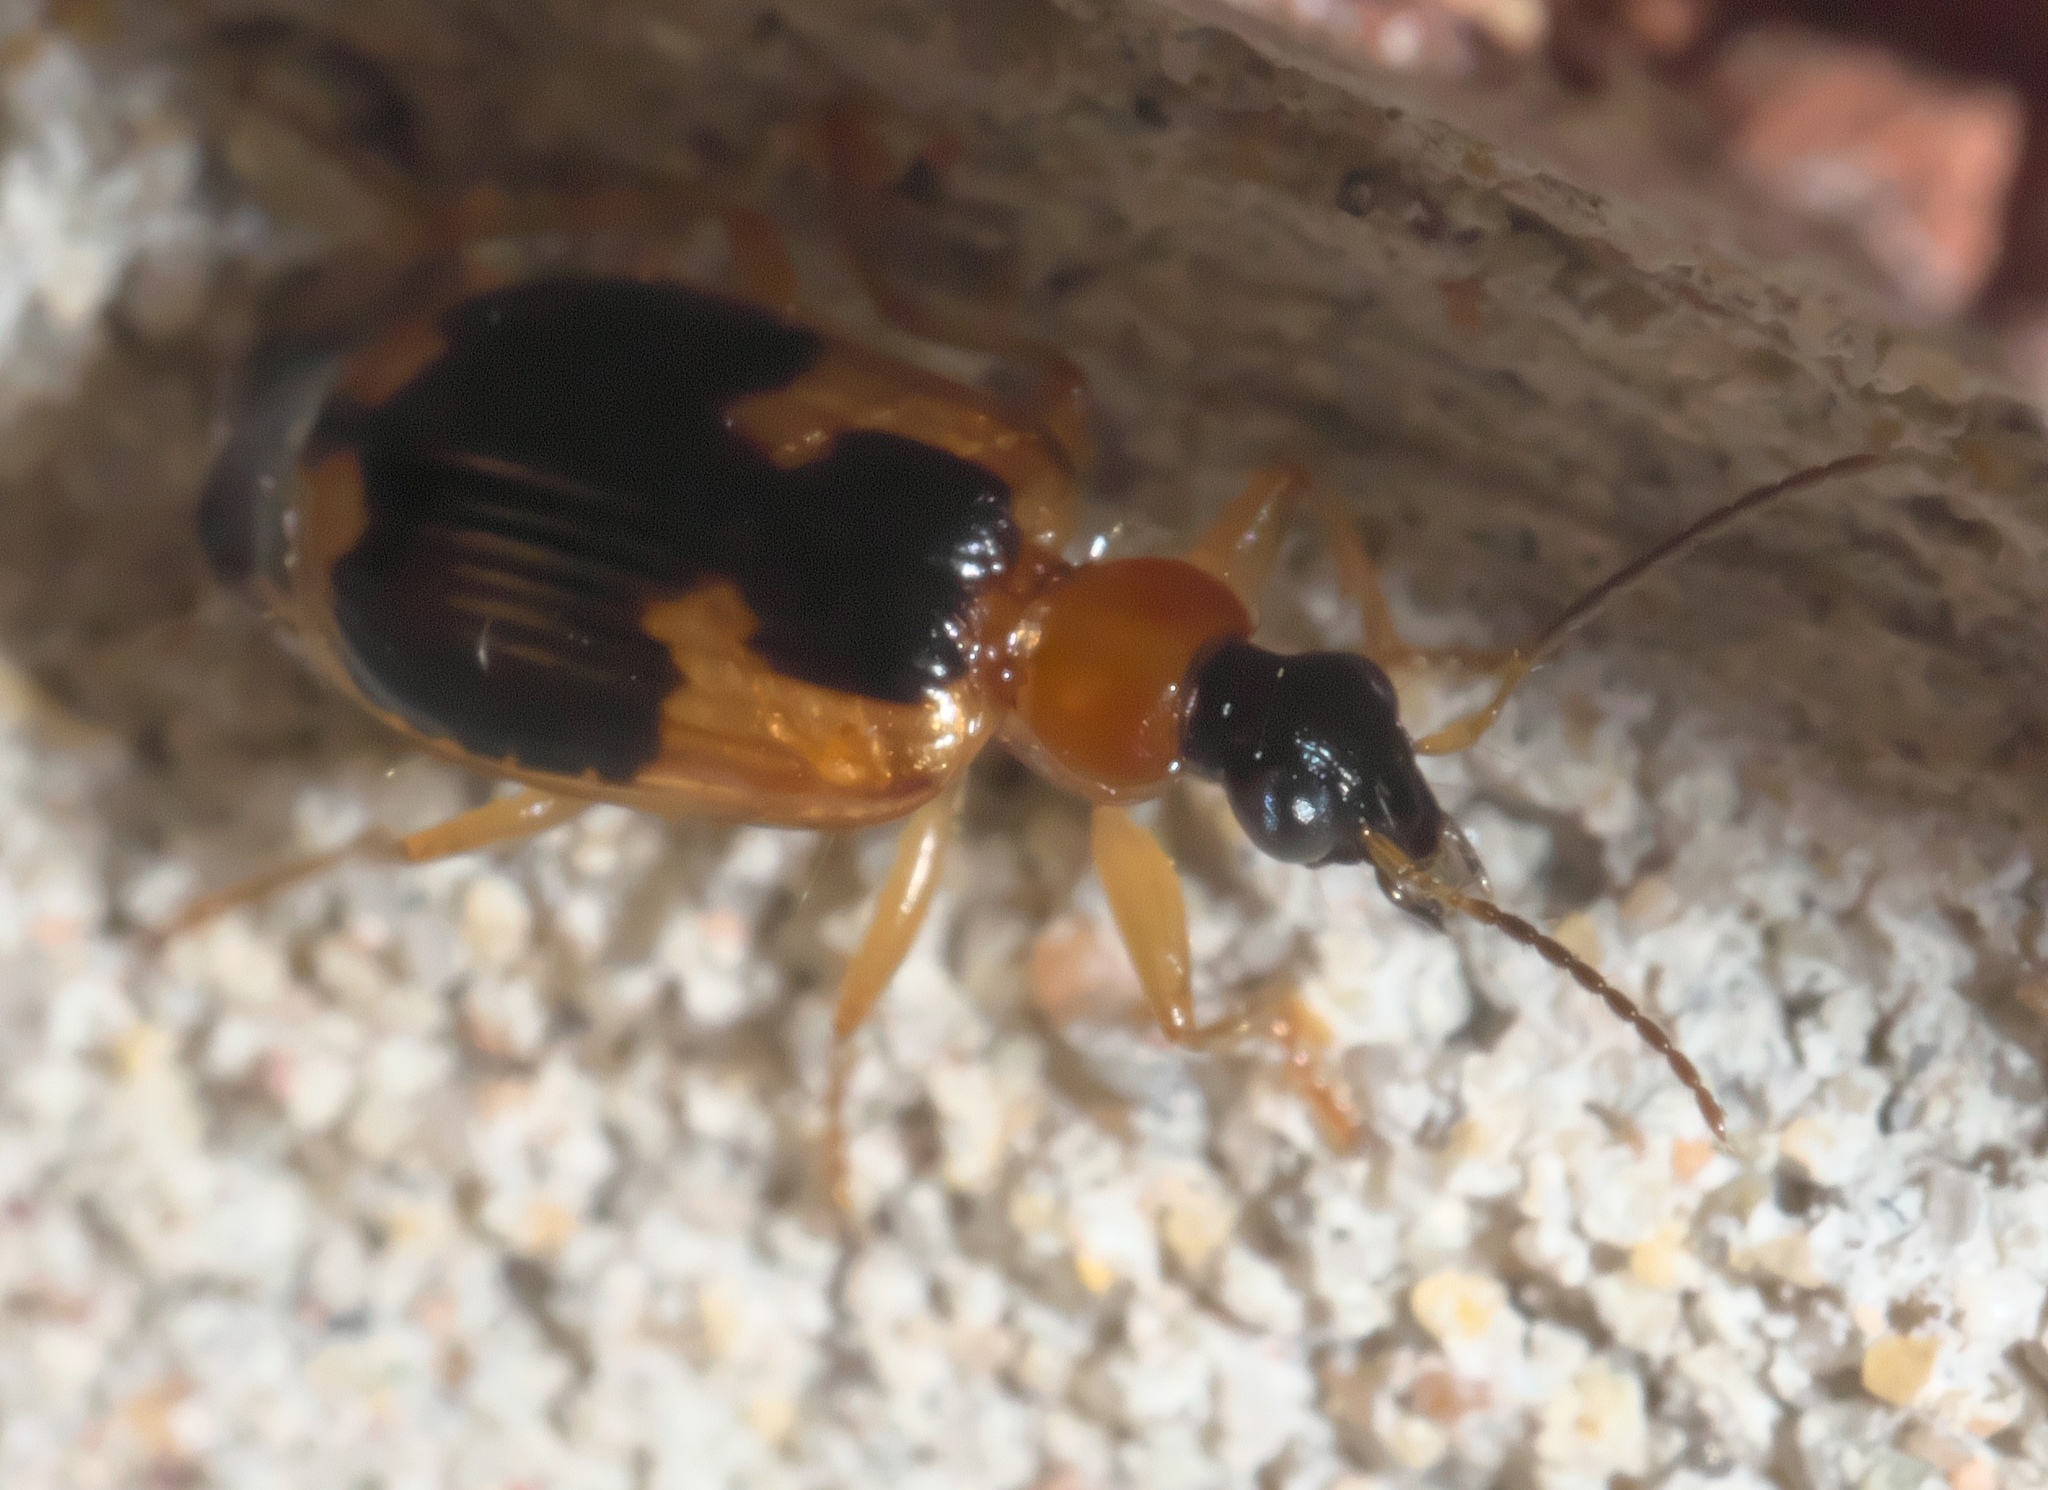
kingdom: Animalia
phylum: Arthropoda
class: Insecta
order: Coleoptera
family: Carabidae
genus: Lebia
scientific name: Lebia analis
